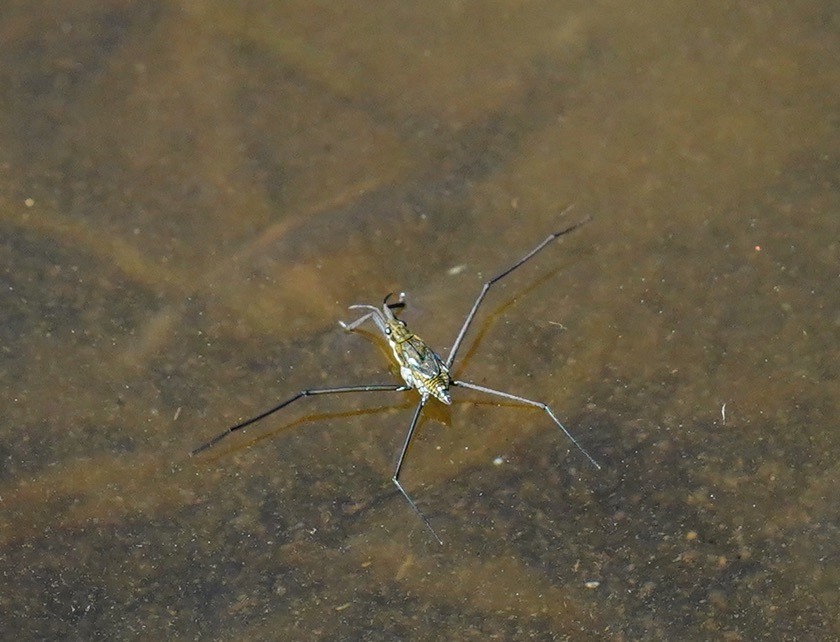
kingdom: Animalia
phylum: Arthropoda
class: Insecta
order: Hemiptera
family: Gerridae
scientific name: Gerridae
